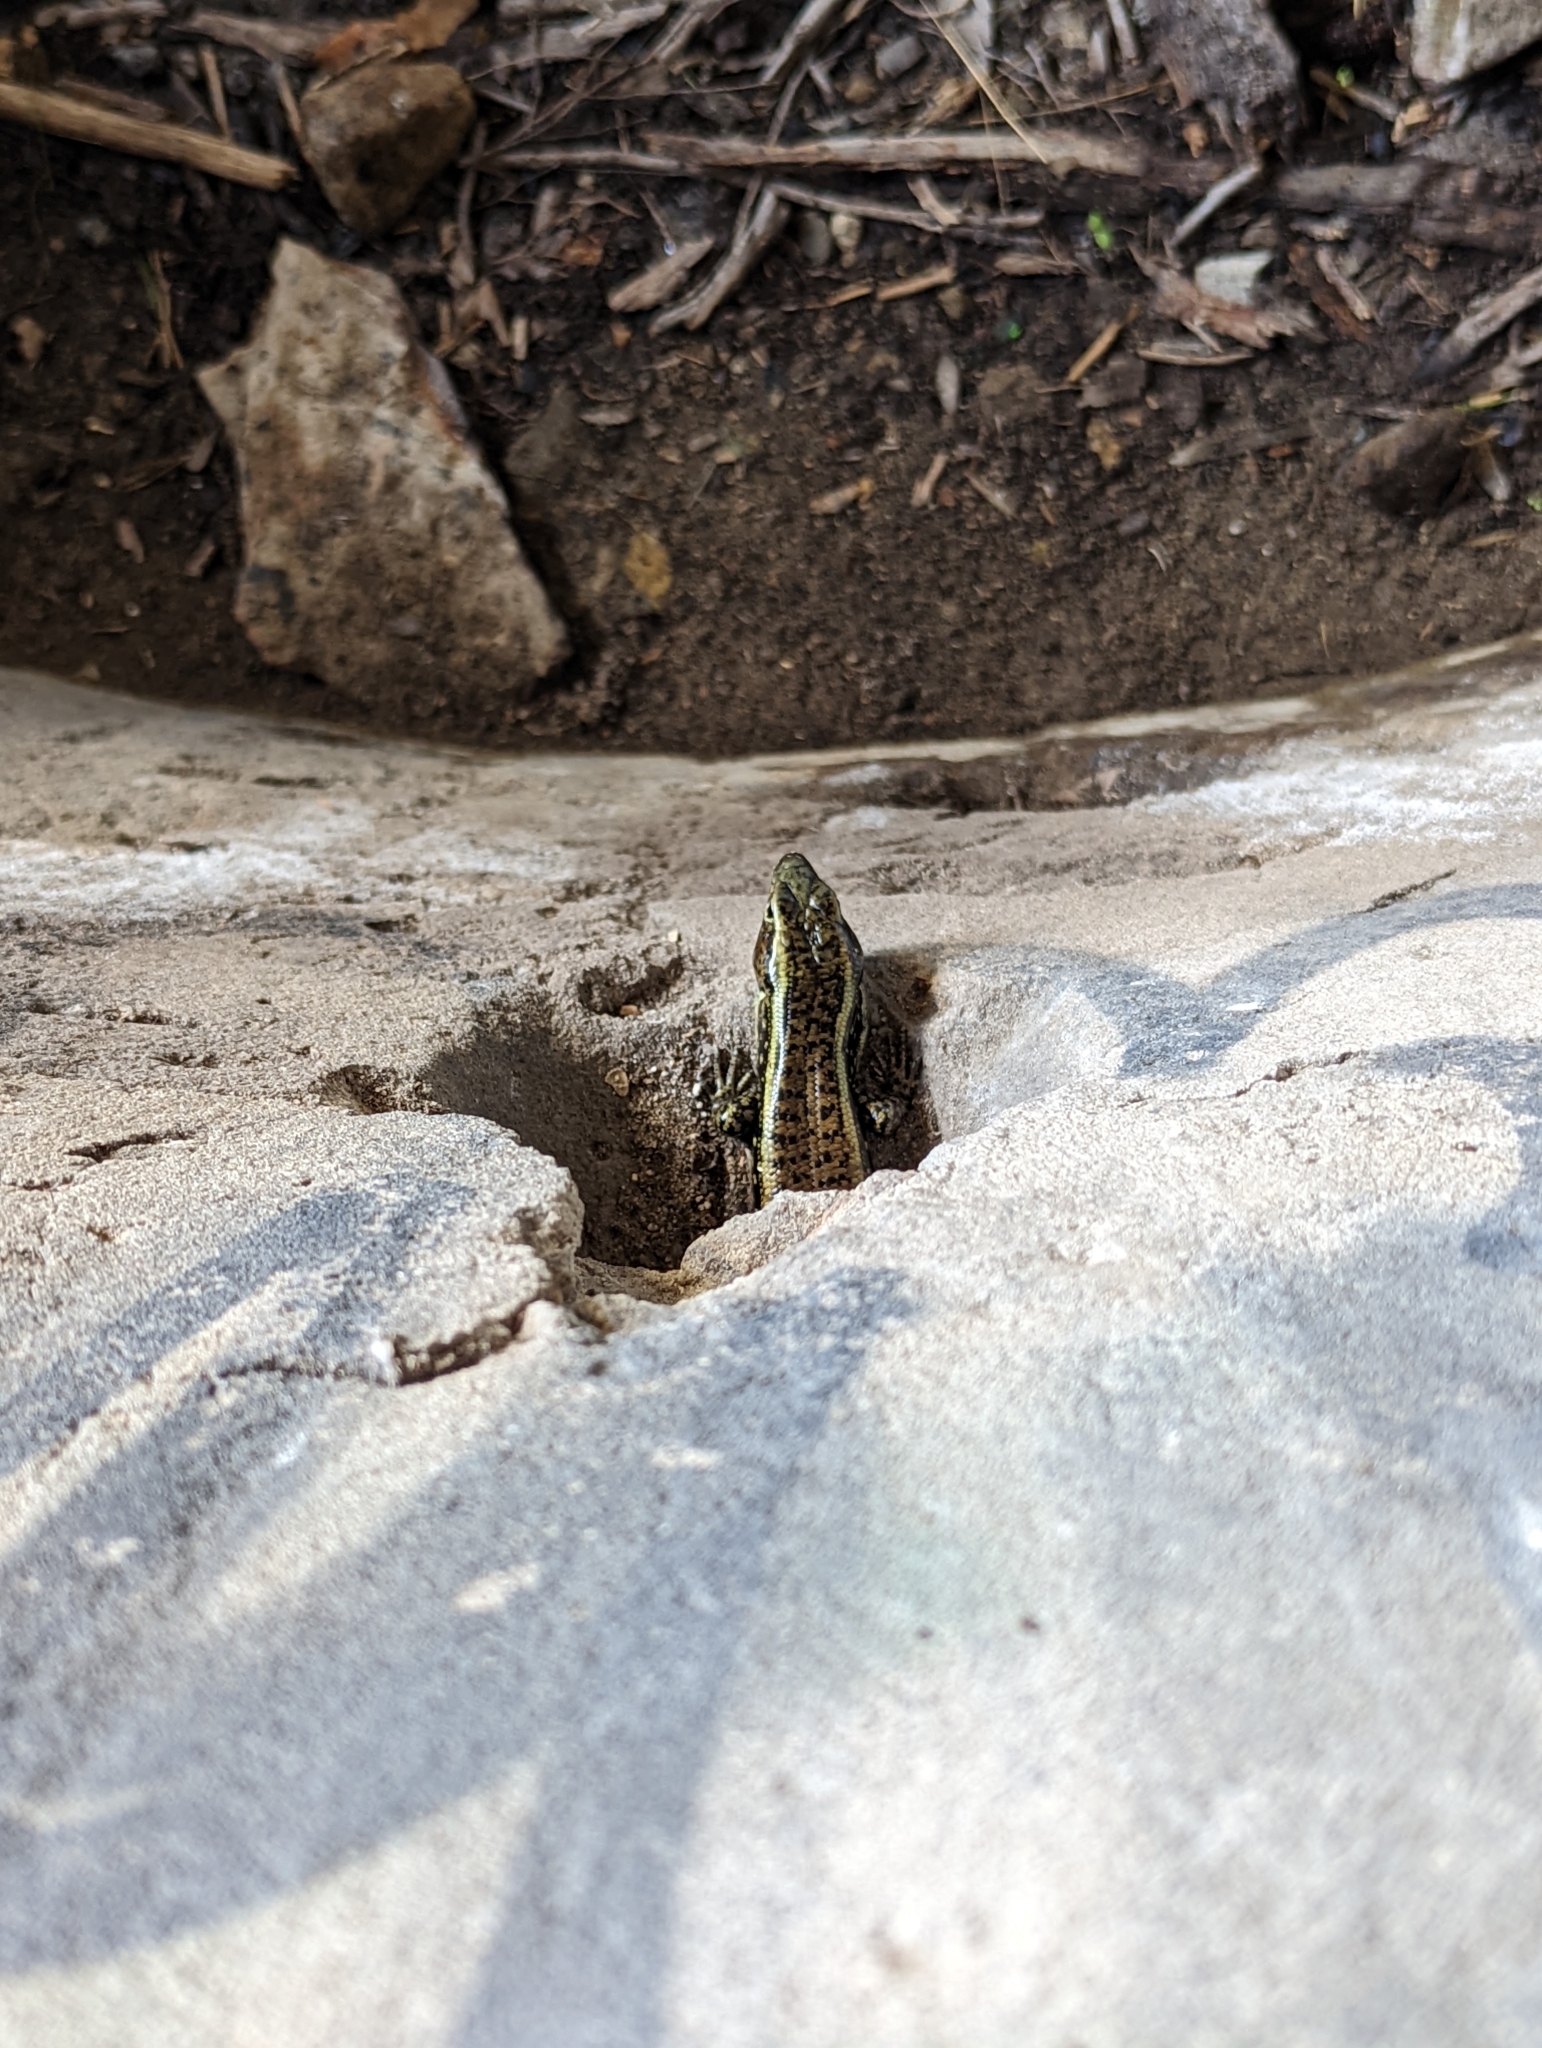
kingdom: Animalia
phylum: Chordata
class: Squamata
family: Scincidae
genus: Eulamprus
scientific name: Eulamprus quoyii
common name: Eastern water skink
